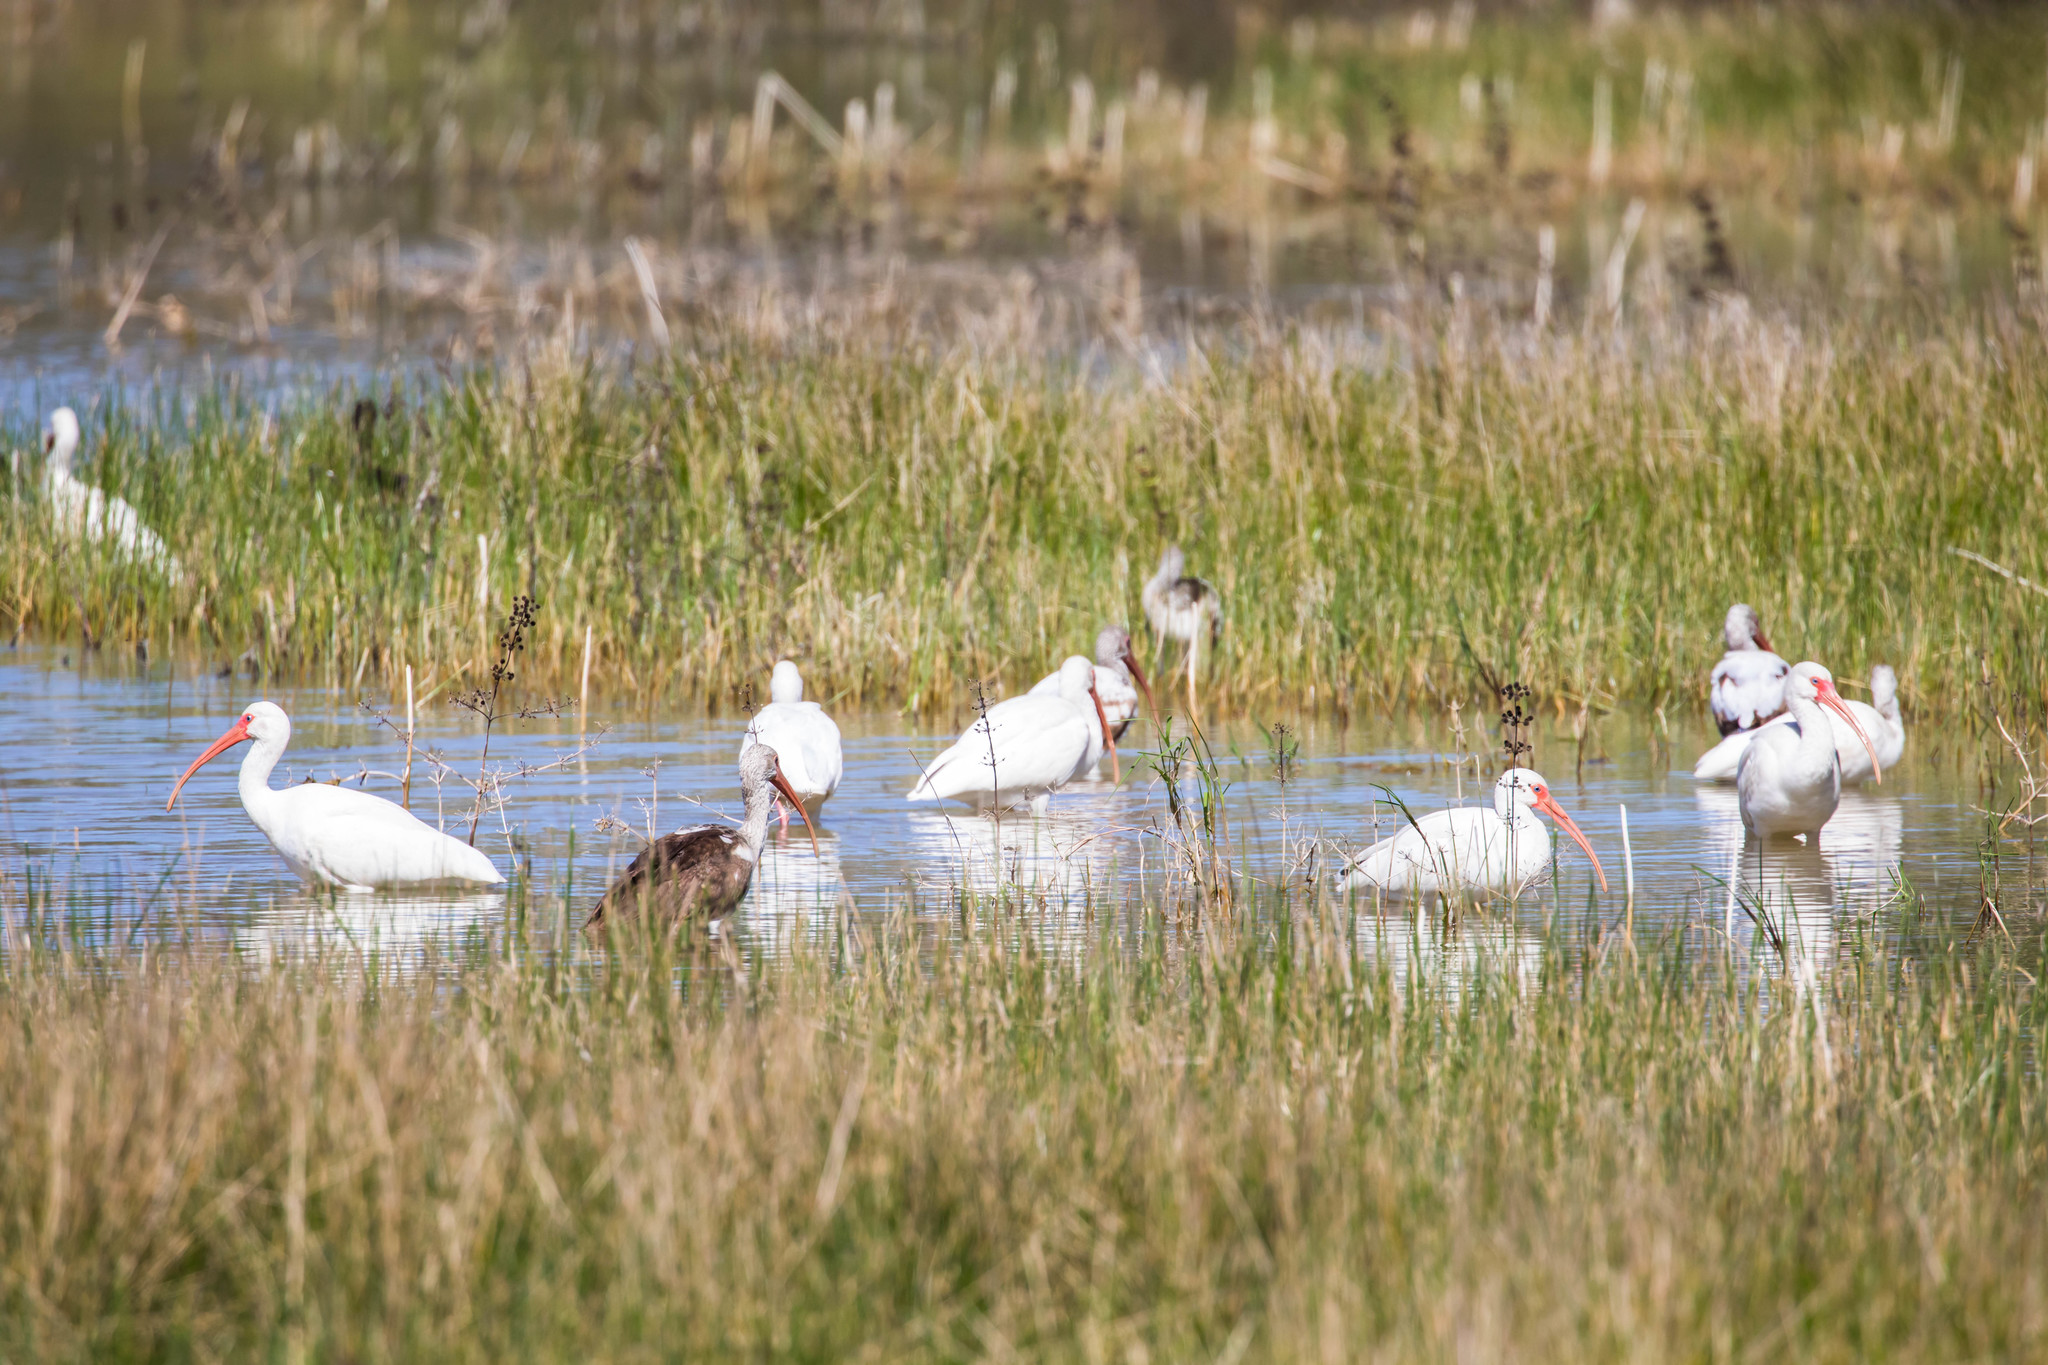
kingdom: Animalia
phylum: Chordata
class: Aves
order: Pelecaniformes
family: Threskiornithidae
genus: Eudocimus
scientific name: Eudocimus albus
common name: White ibis
